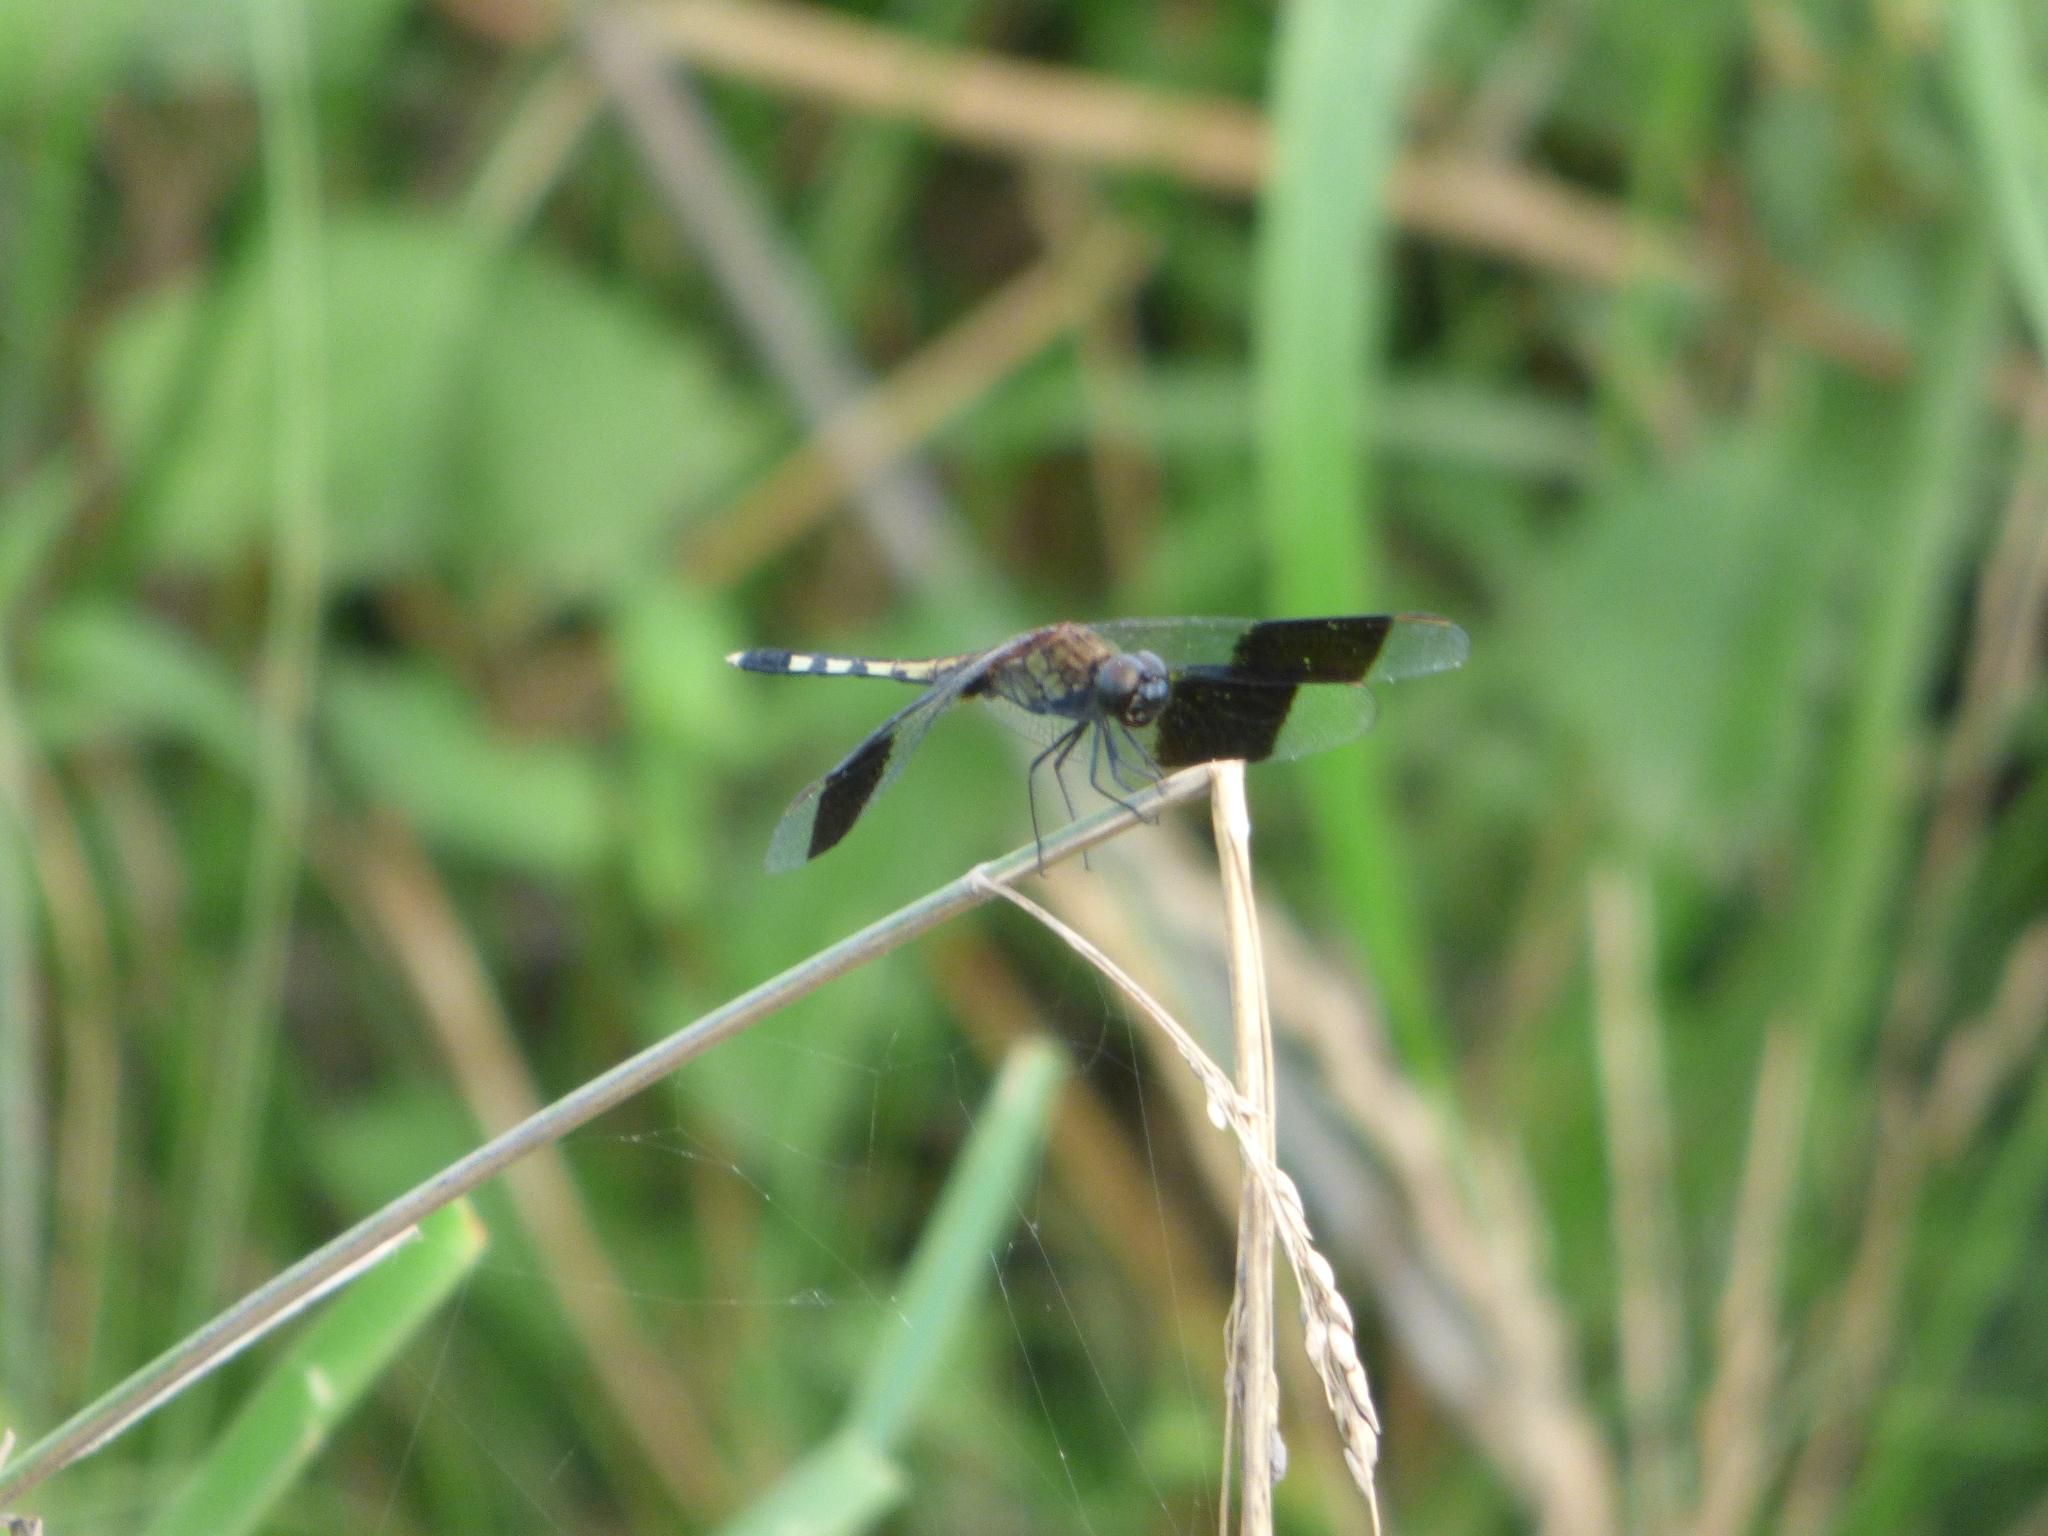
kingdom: Animalia
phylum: Arthropoda
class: Insecta
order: Odonata
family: Libellulidae
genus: Erythrodiplax
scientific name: Erythrodiplax umbrata
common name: Band-winged dragonlet
